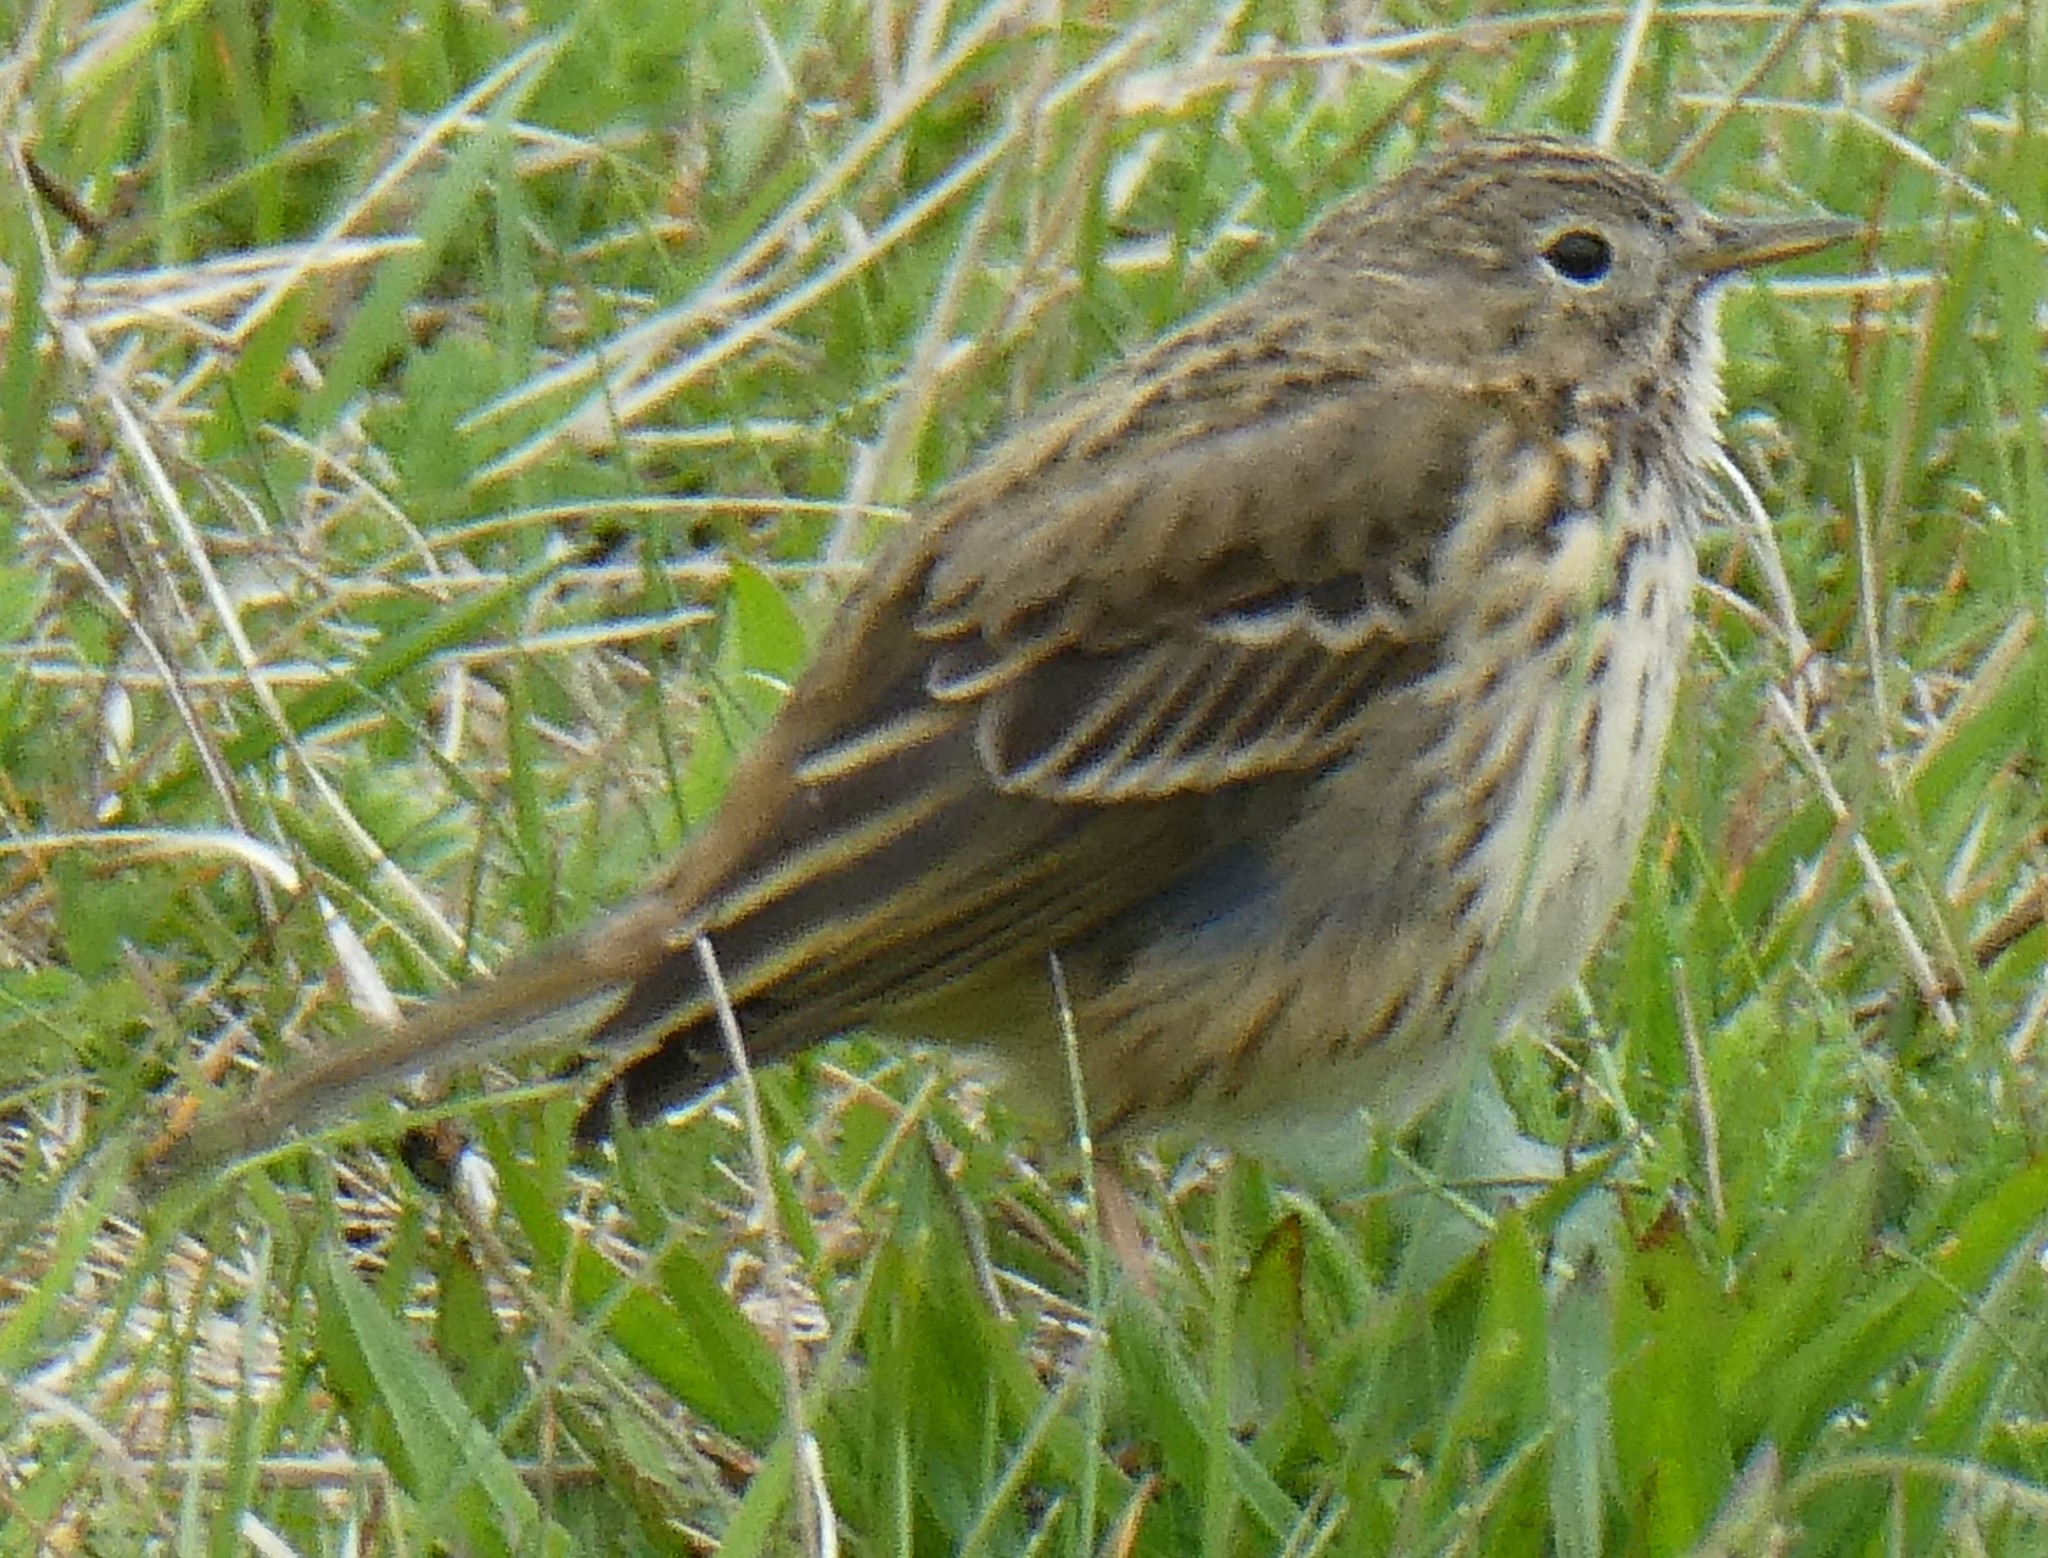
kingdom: Animalia
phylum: Chordata
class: Aves
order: Passeriformes
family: Motacillidae
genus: Anthus
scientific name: Anthus pratensis
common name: Meadow pipit
